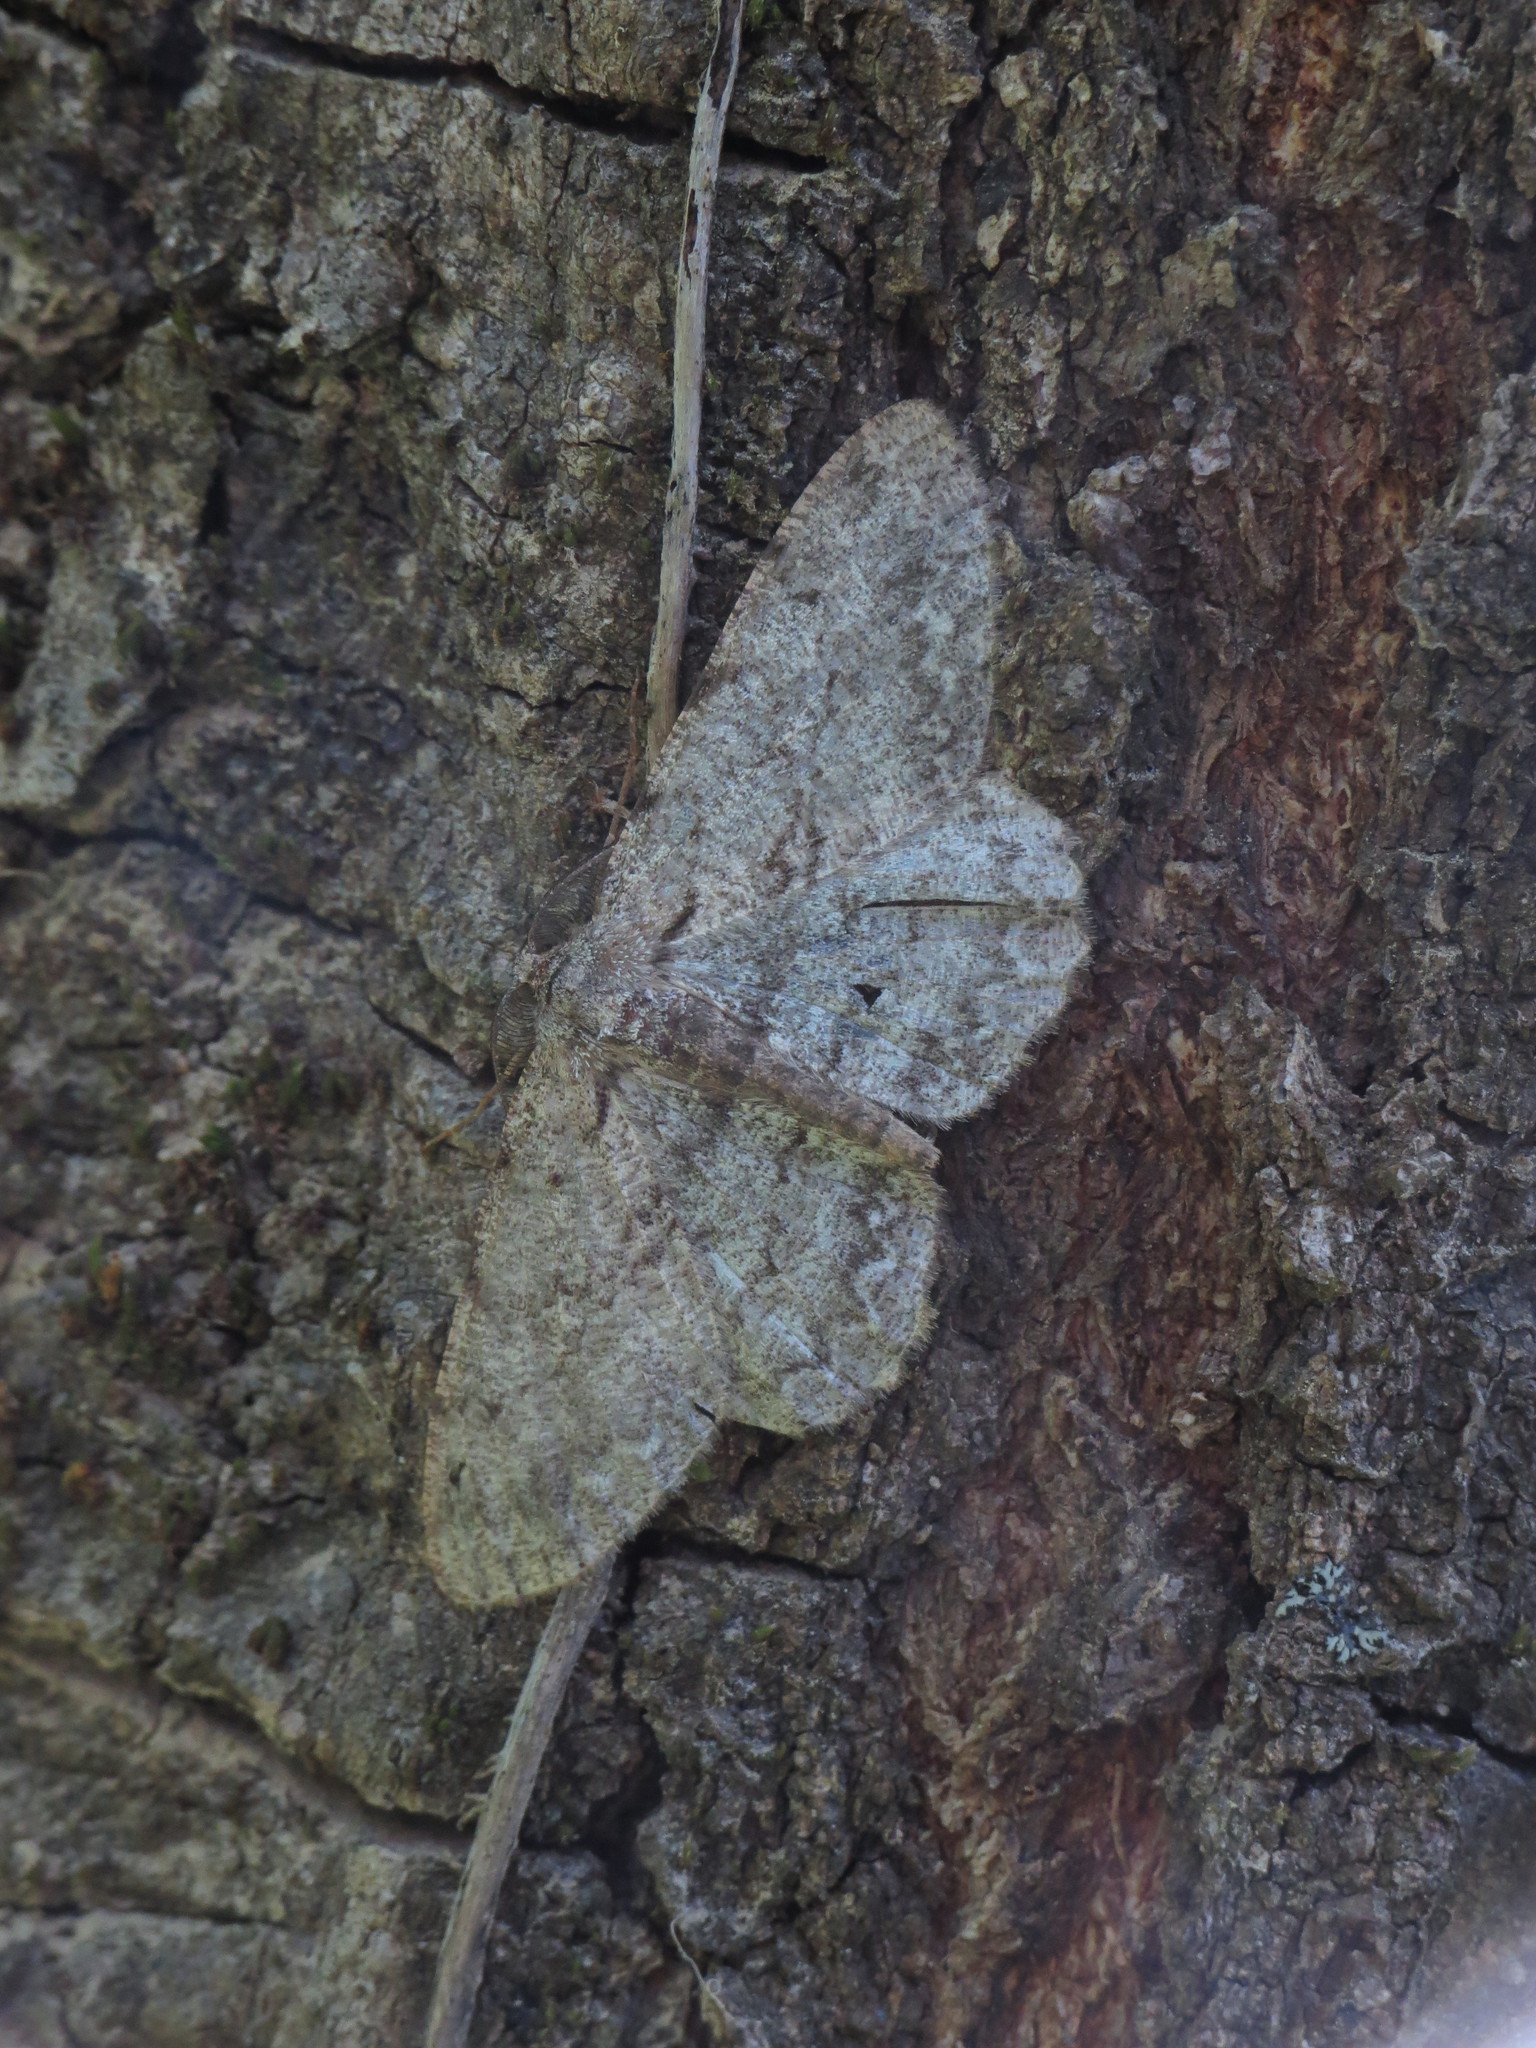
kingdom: Animalia
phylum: Arthropoda
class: Insecta
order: Lepidoptera
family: Geometridae
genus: Hypomecis
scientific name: Hypomecis punctinalis
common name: Pale oak beauty
